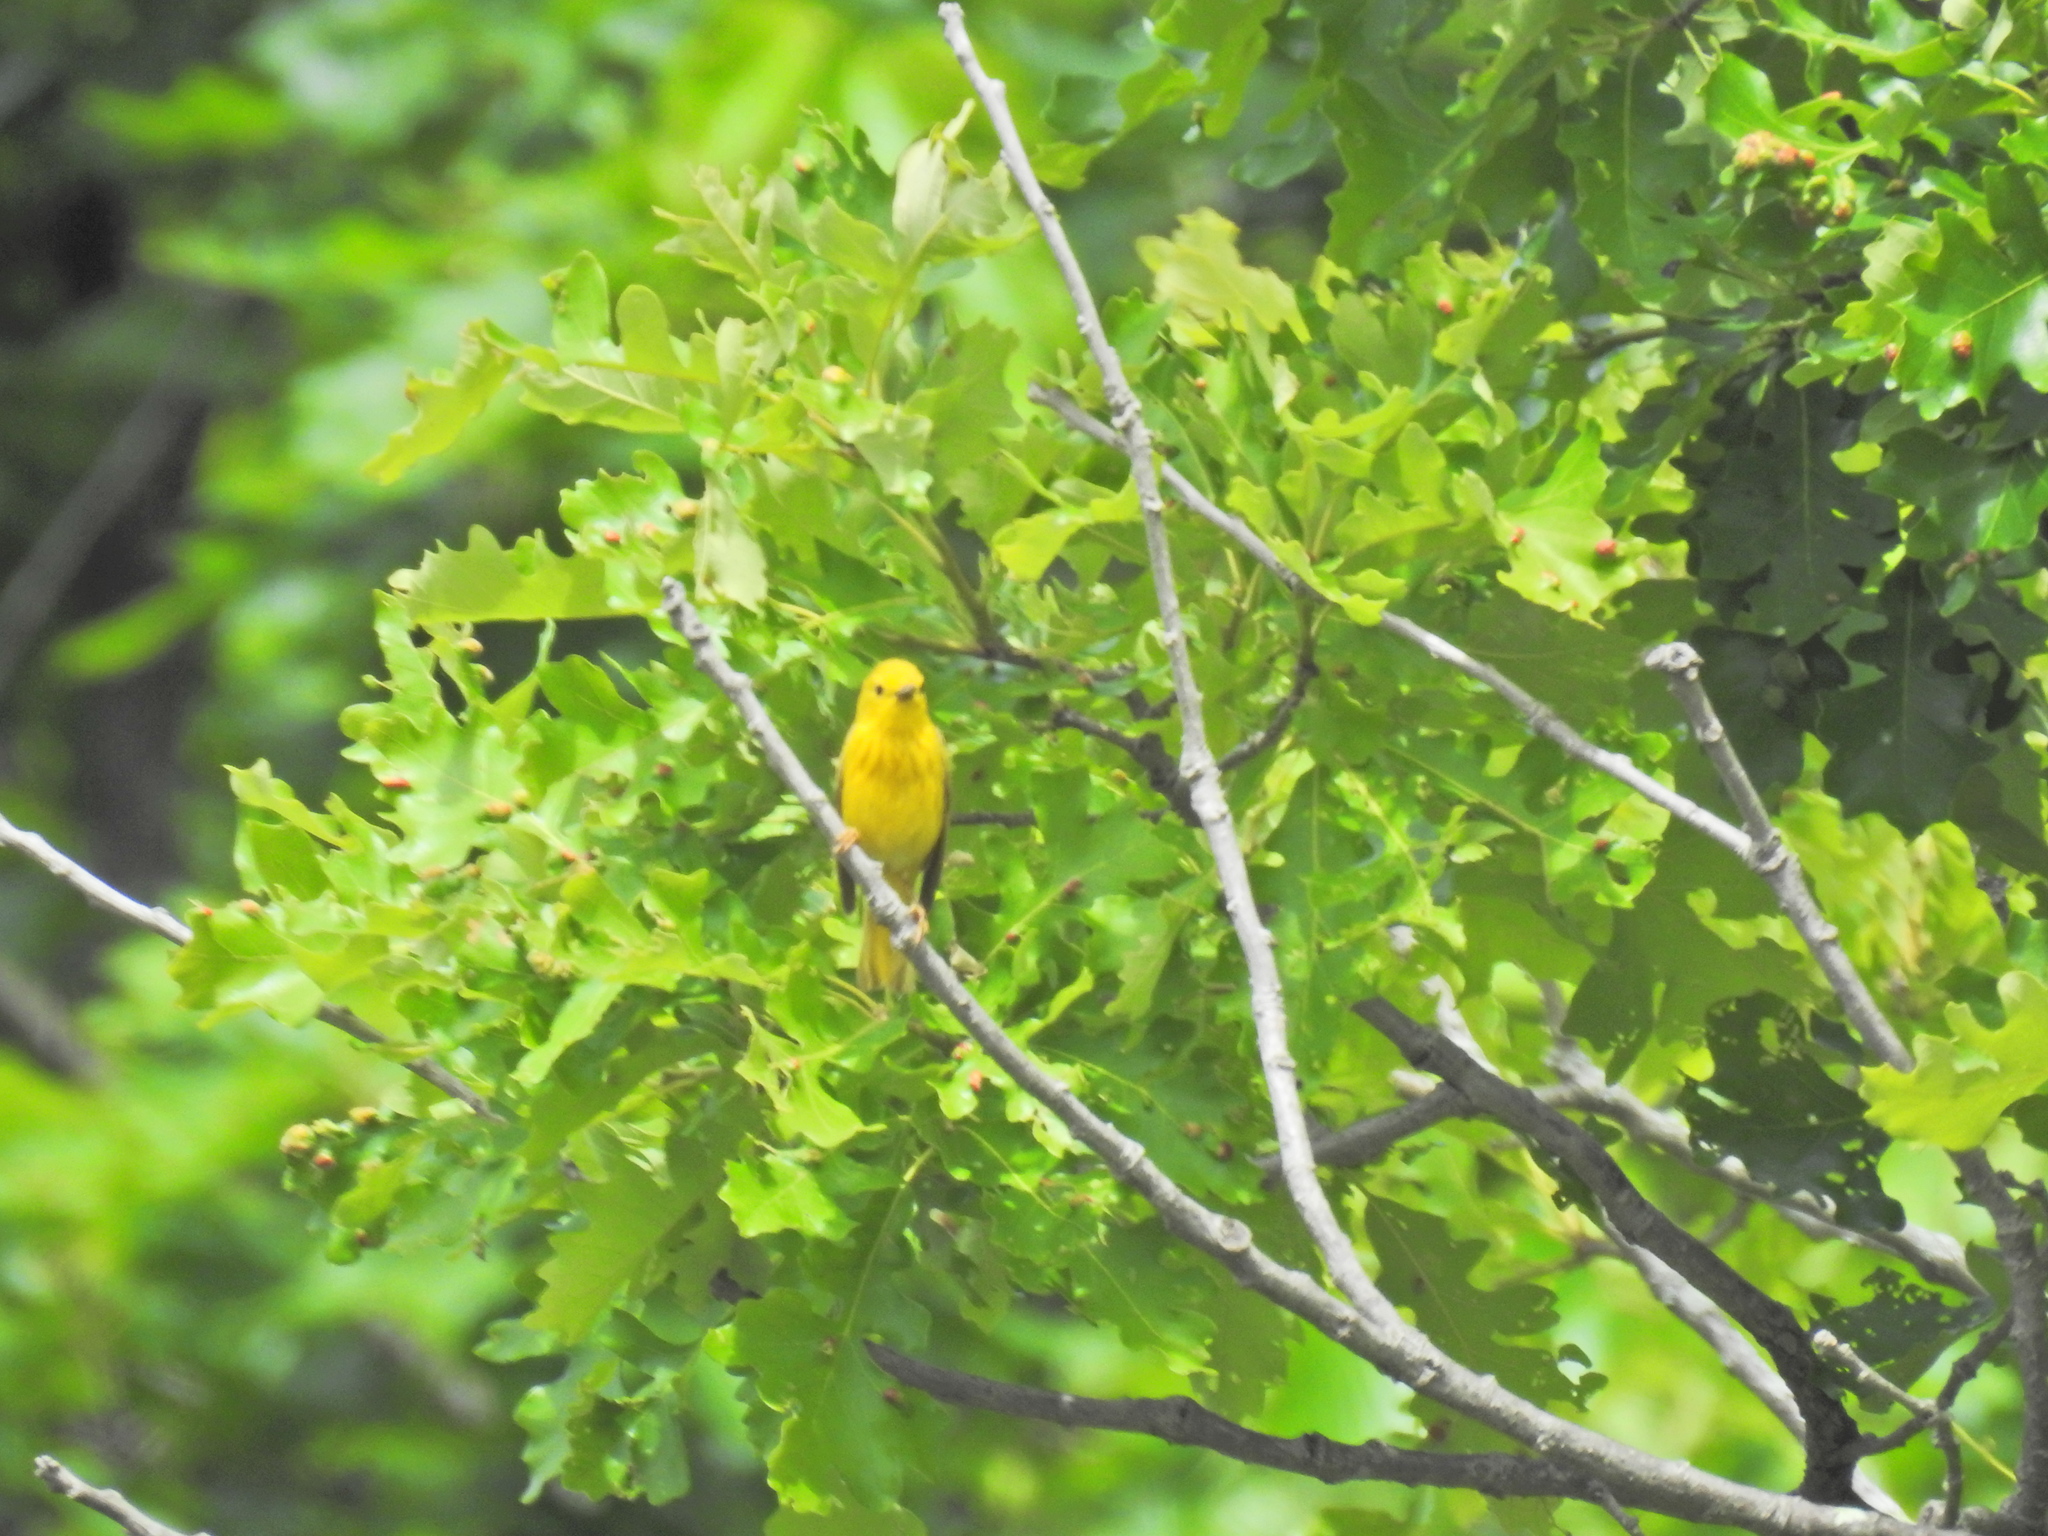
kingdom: Animalia
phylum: Chordata
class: Aves
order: Passeriformes
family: Parulidae
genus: Setophaga
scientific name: Setophaga petechia
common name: Yellow warbler
